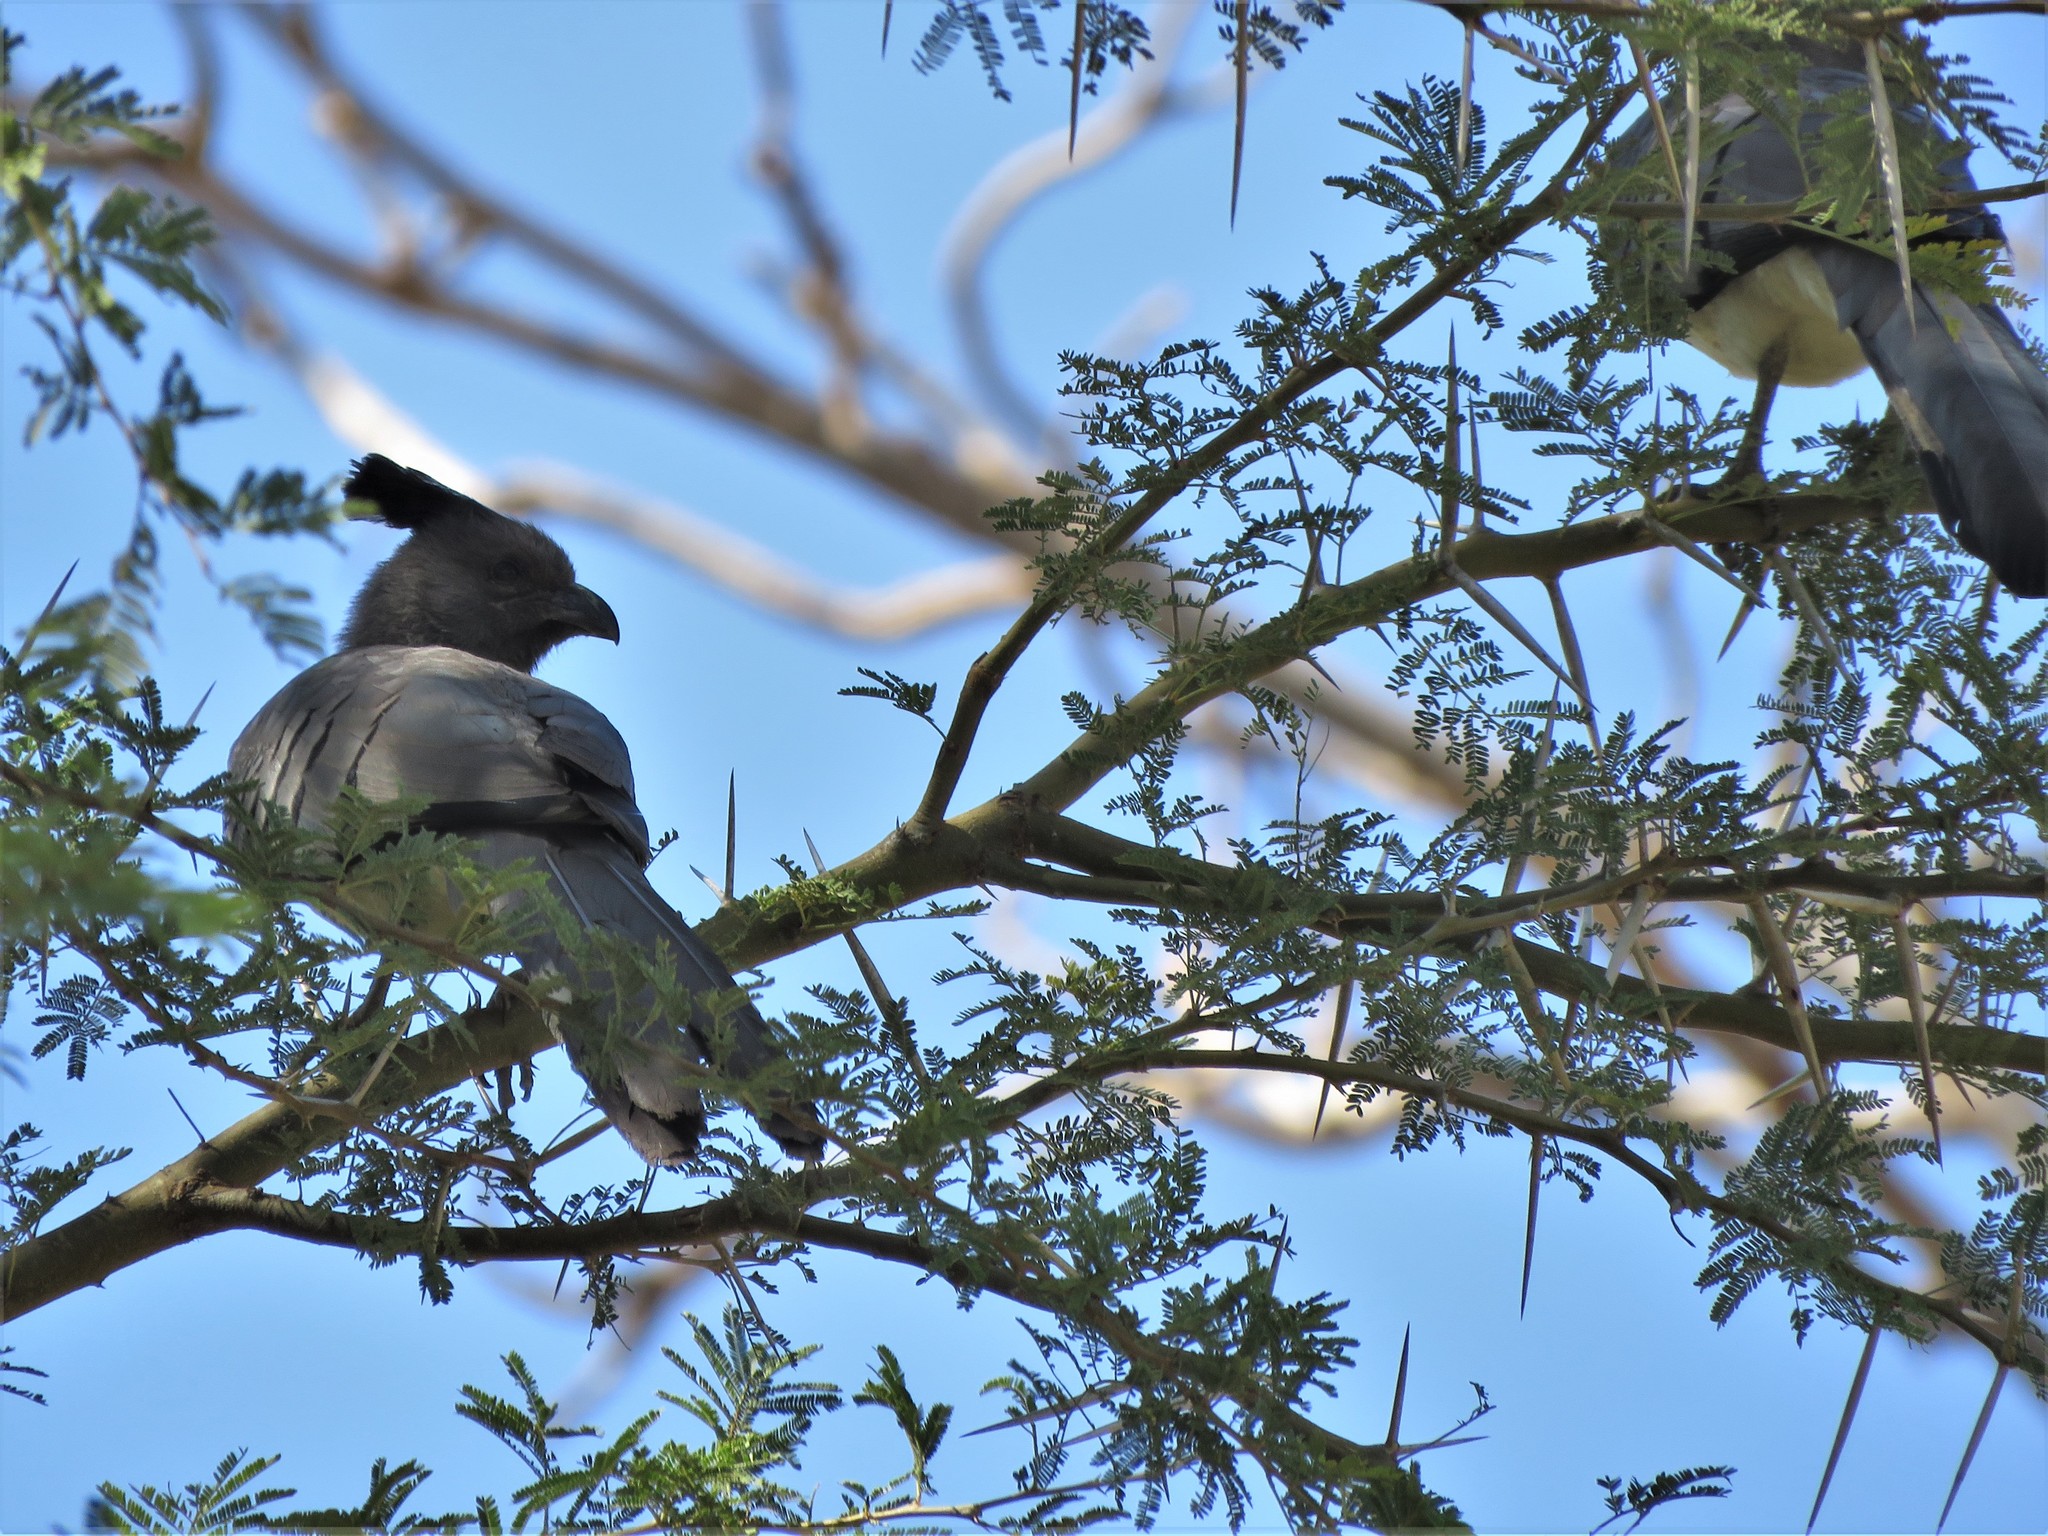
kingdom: Animalia
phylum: Chordata
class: Aves
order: Musophagiformes
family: Musophagidae
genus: Corythaixoides
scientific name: Corythaixoides leucogaster
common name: White-bellied go-away-bird
